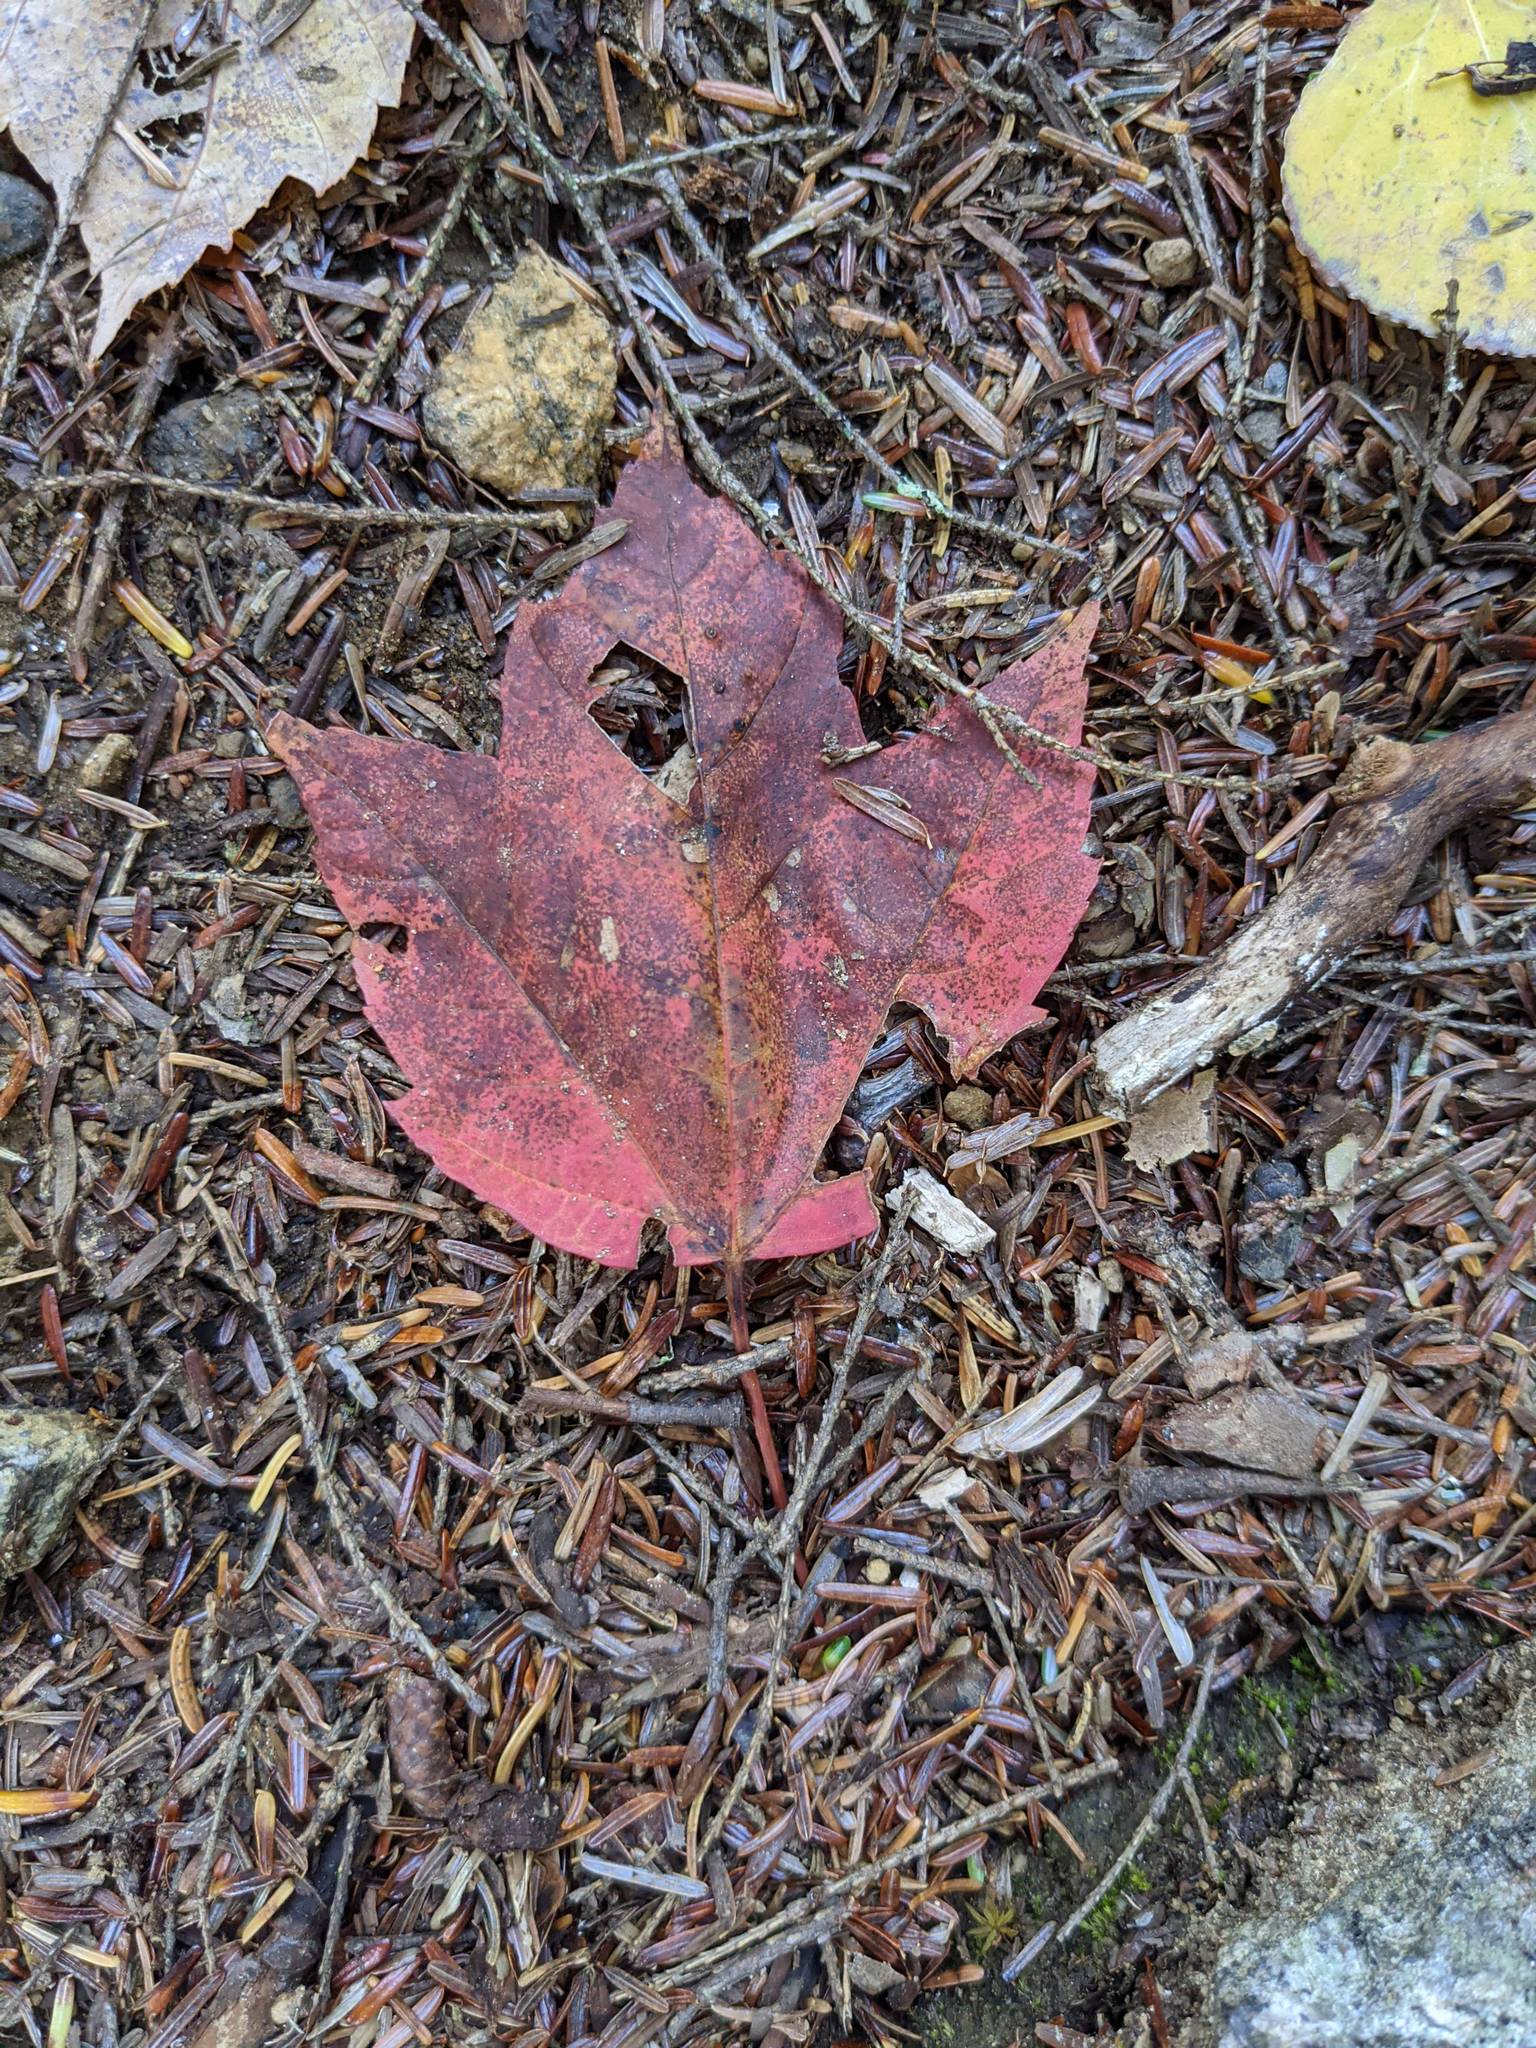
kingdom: Plantae
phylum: Tracheophyta
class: Magnoliopsida
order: Sapindales
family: Sapindaceae
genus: Acer
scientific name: Acer rubrum
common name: Red maple
